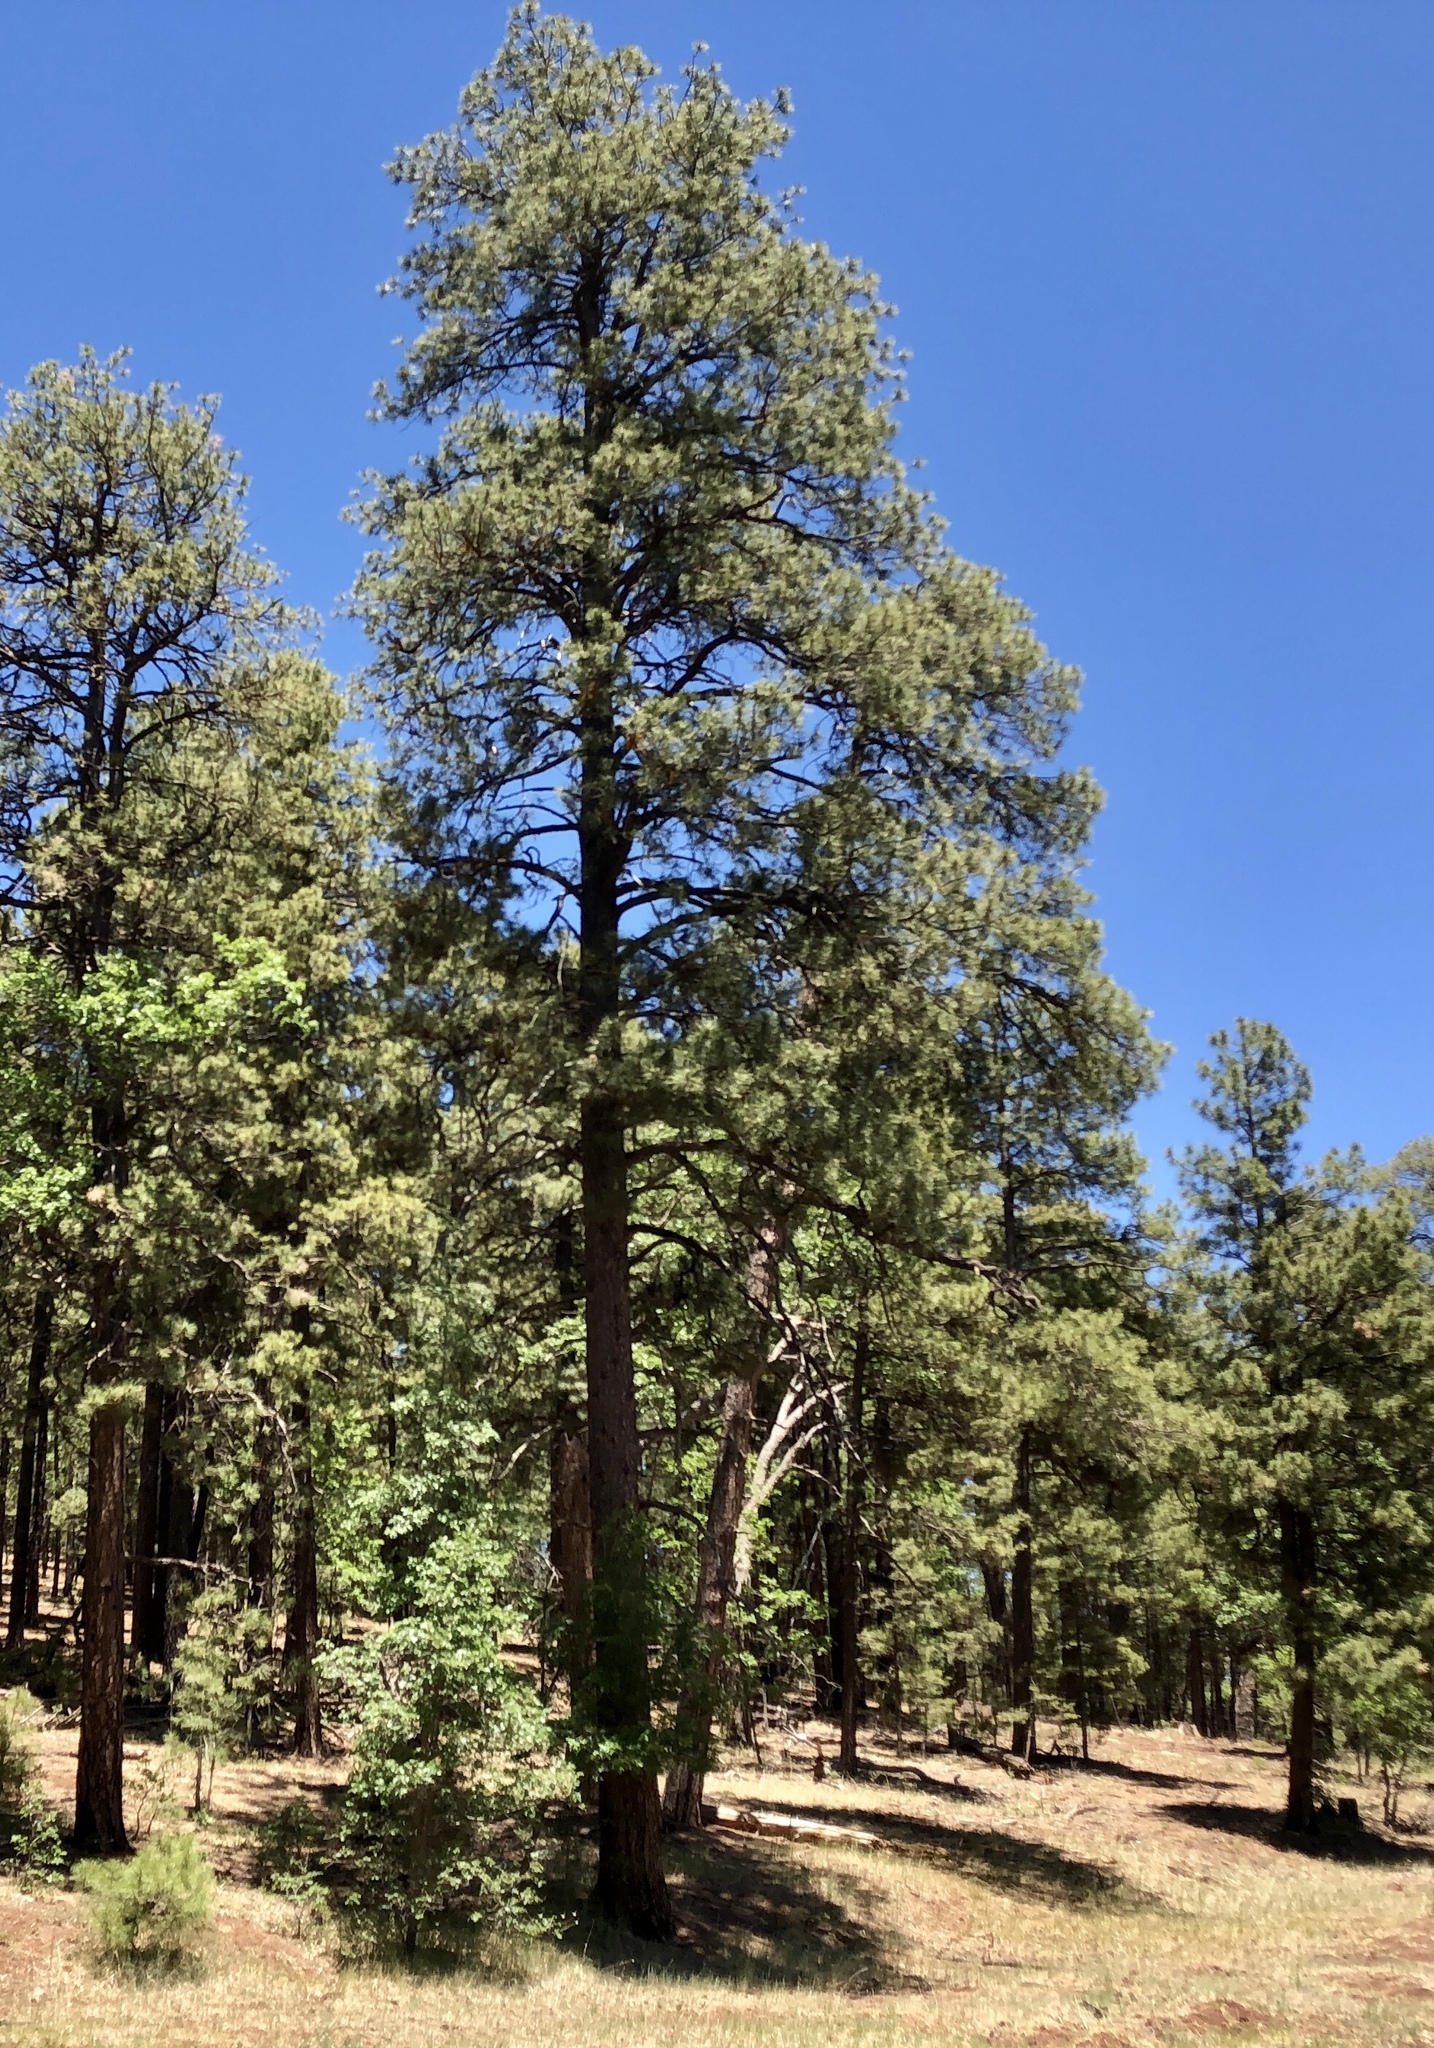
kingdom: Plantae
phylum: Tracheophyta
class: Pinopsida
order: Pinales
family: Pinaceae
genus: Pinus
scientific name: Pinus ponderosa
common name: Western yellow-pine
